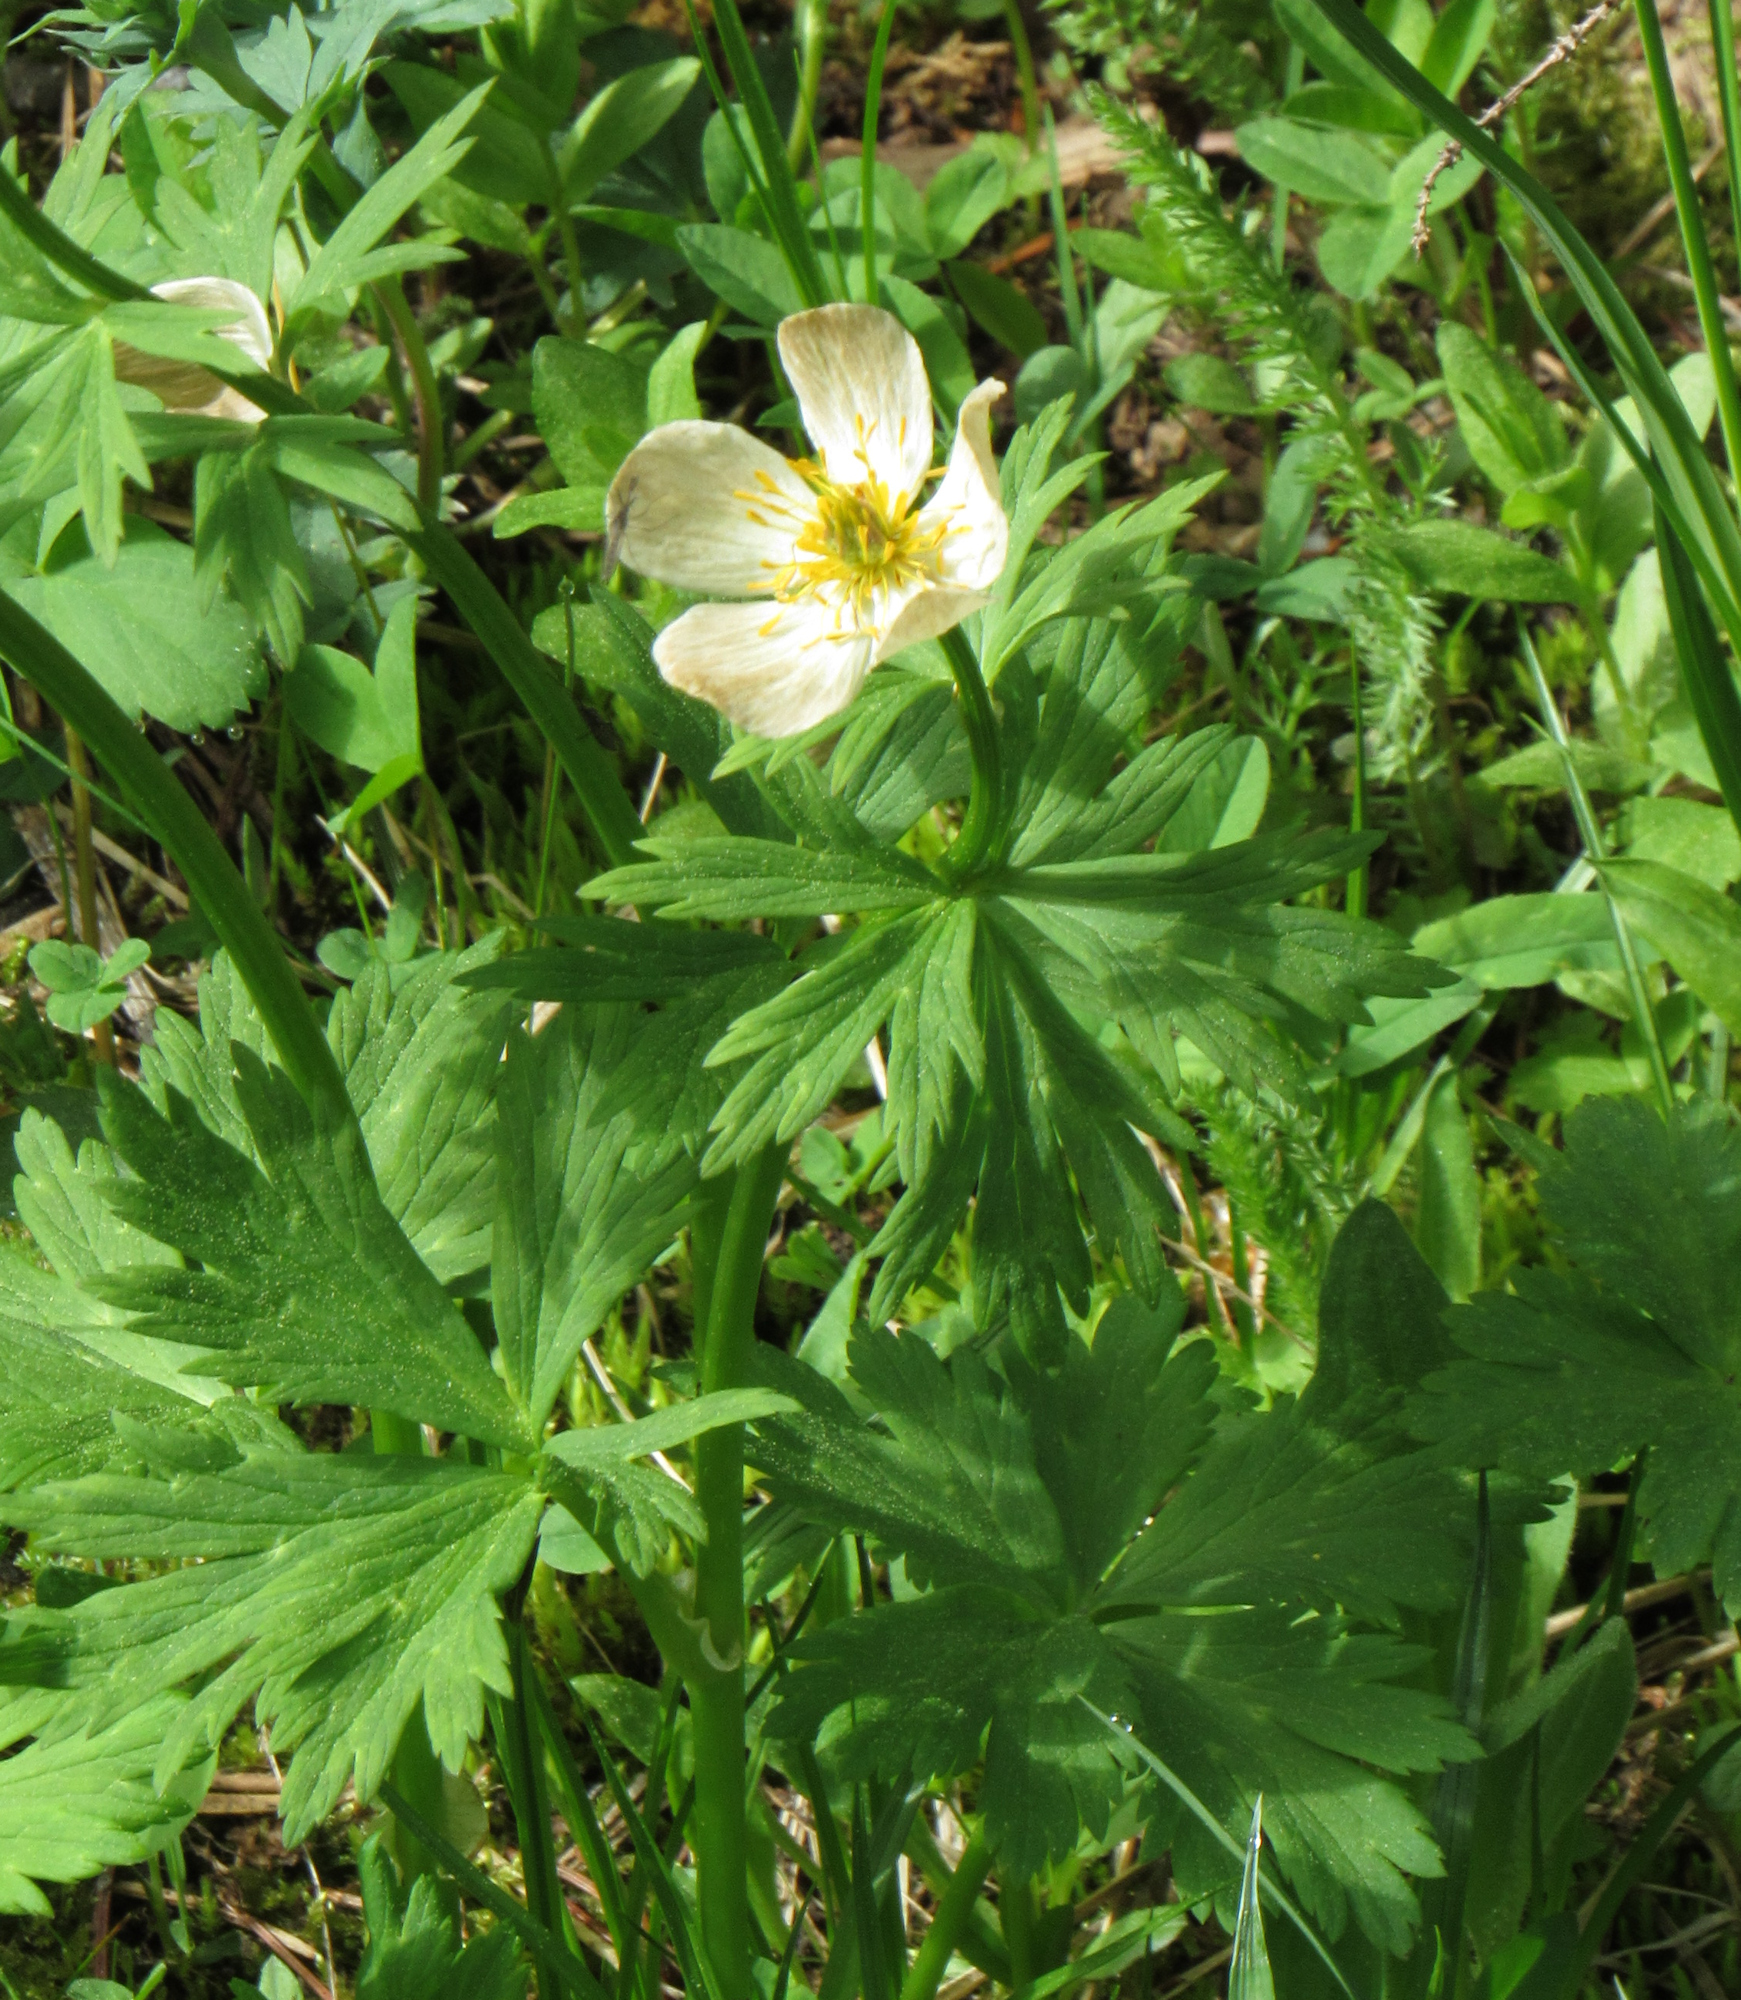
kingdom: Plantae
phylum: Tracheophyta
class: Magnoliopsida
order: Ranunculales
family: Ranunculaceae
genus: Trollius
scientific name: Trollius laxus
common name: American globeflower
